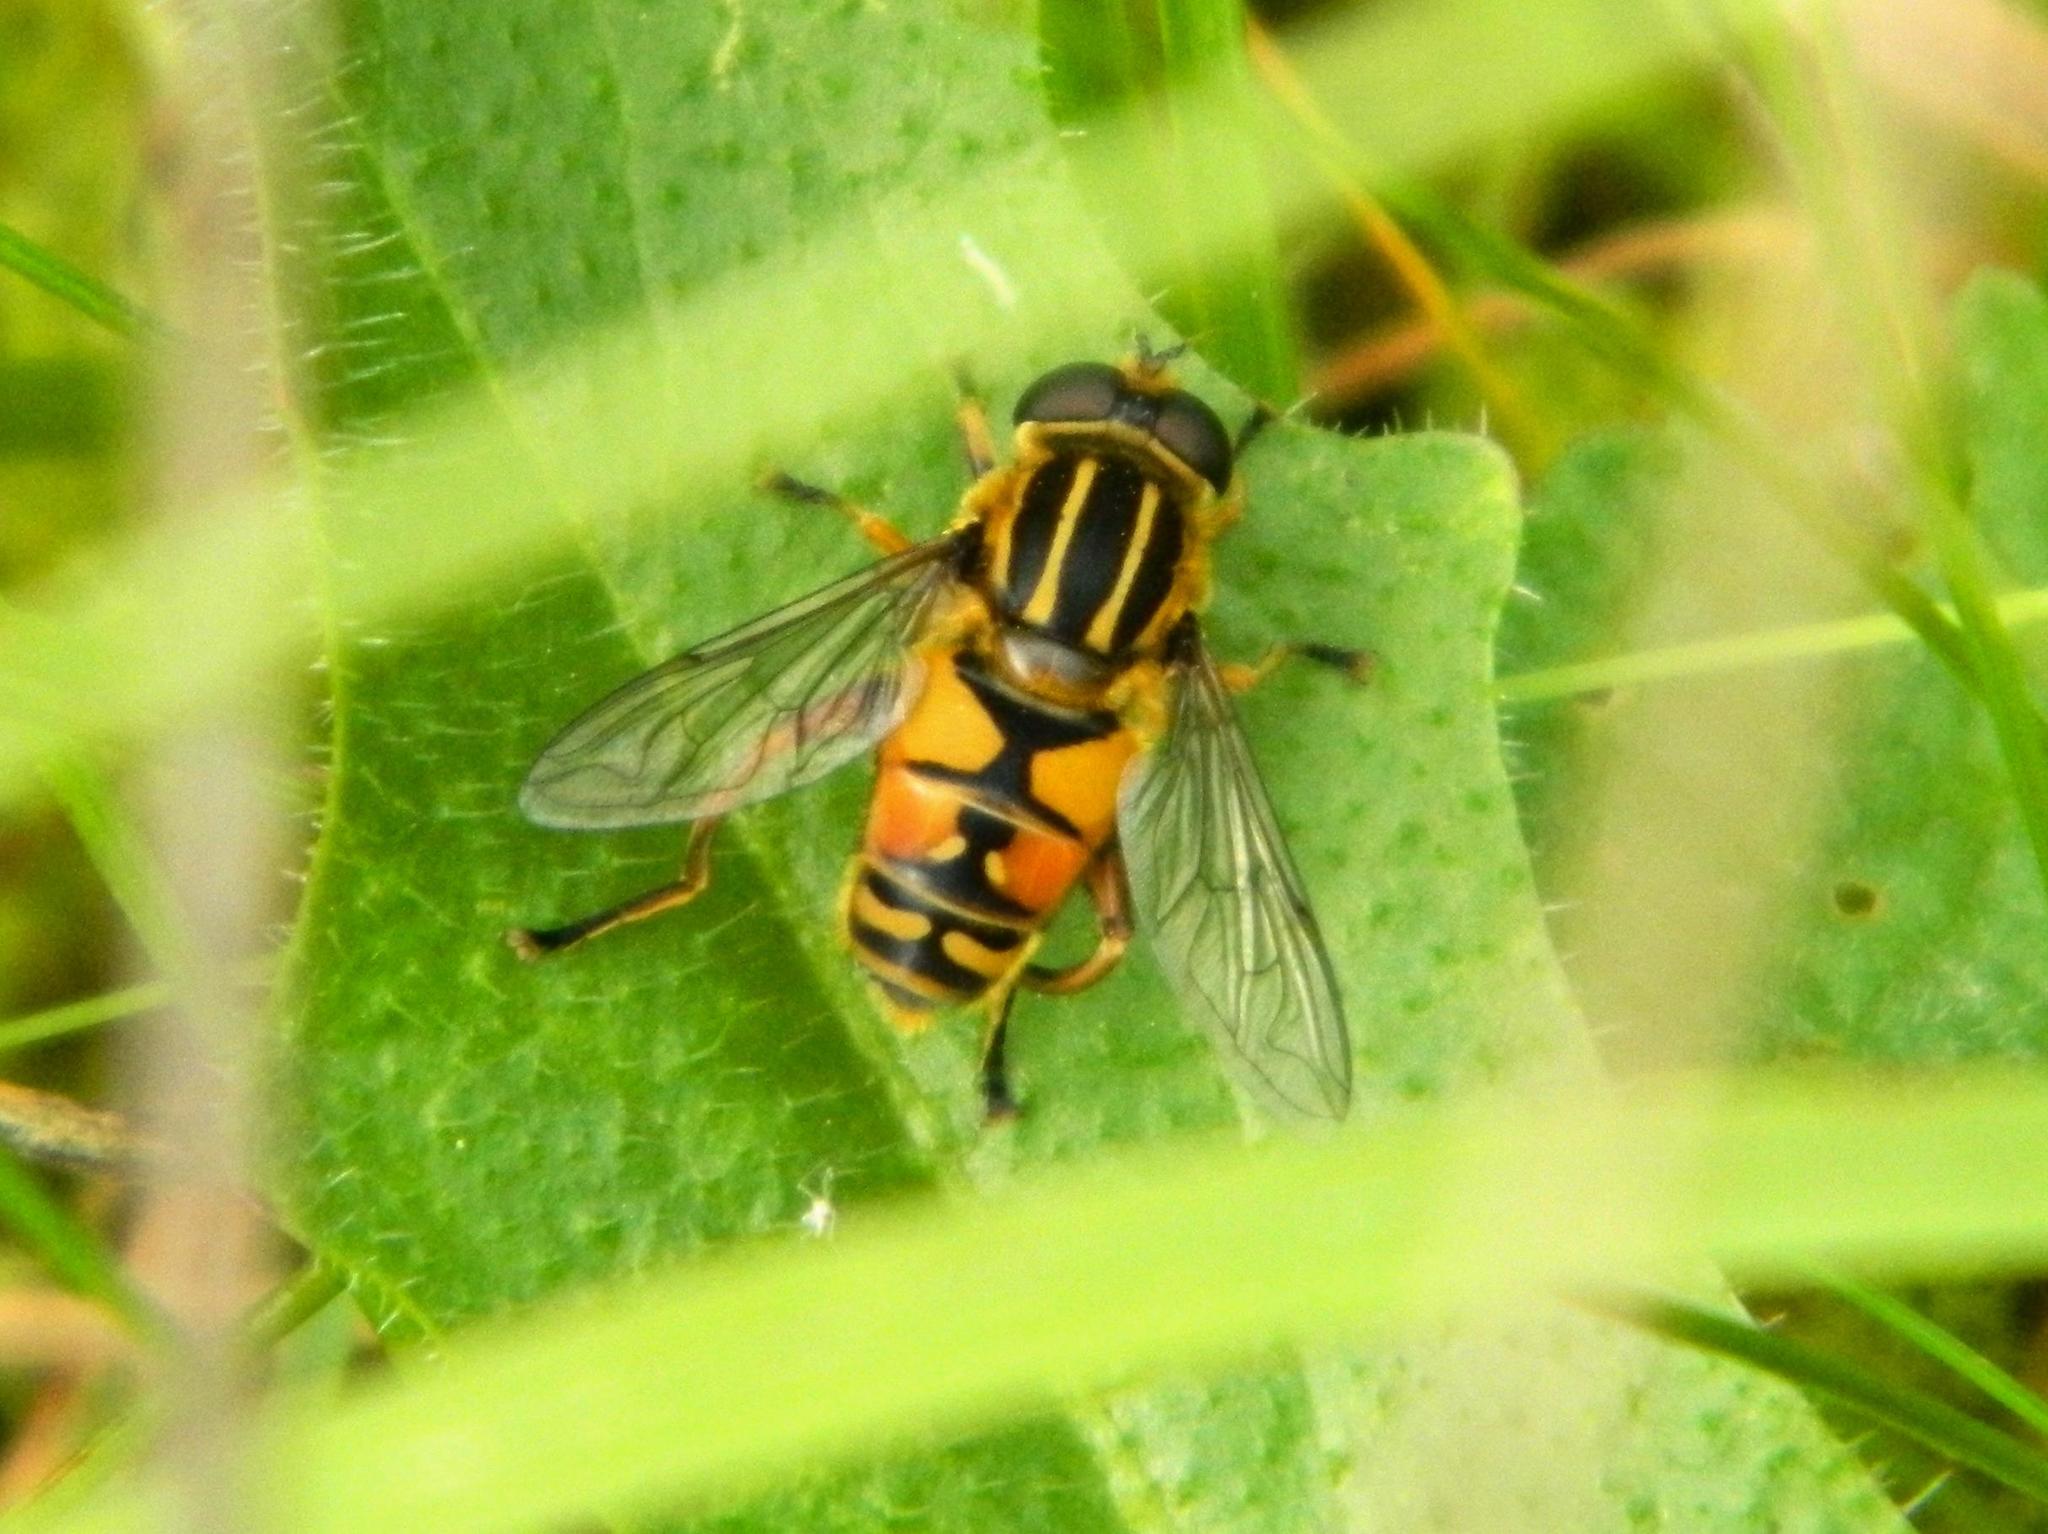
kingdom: Animalia
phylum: Arthropoda
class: Insecta
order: Diptera
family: Syrphidae
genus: Helophilus
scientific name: Helophilus pendulus
